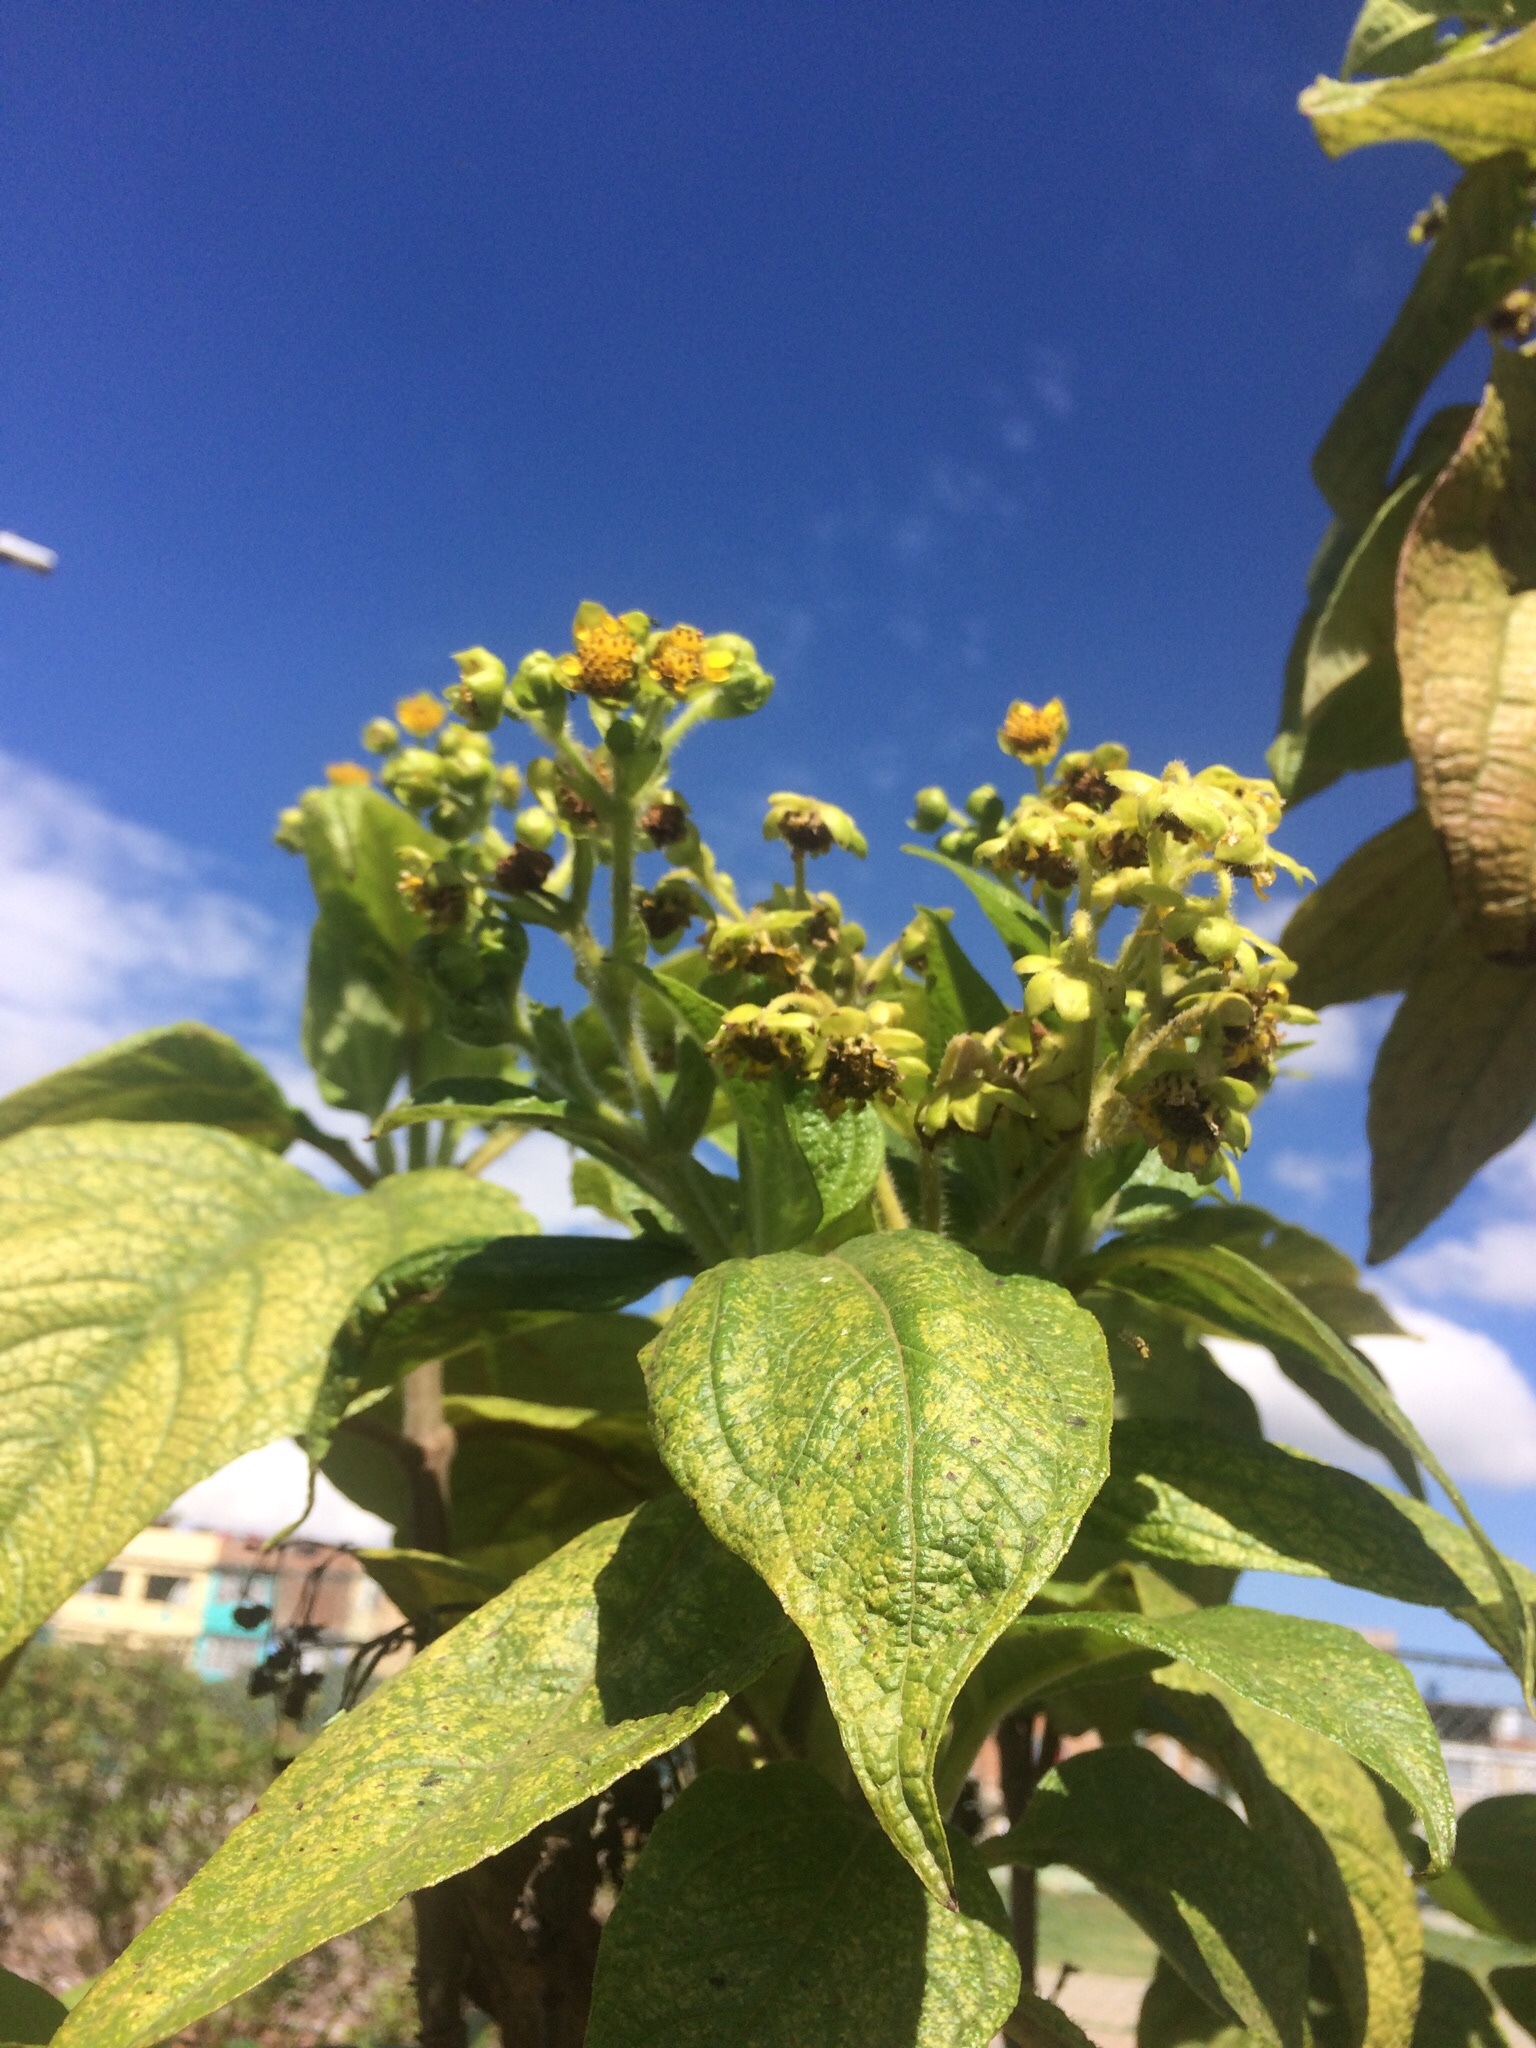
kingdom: Plantae
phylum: Tracheophyta
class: Magnoliopsida
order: Asterales
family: Asteraceae
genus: Smallanthus
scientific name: Smallanthus pyramidalis
